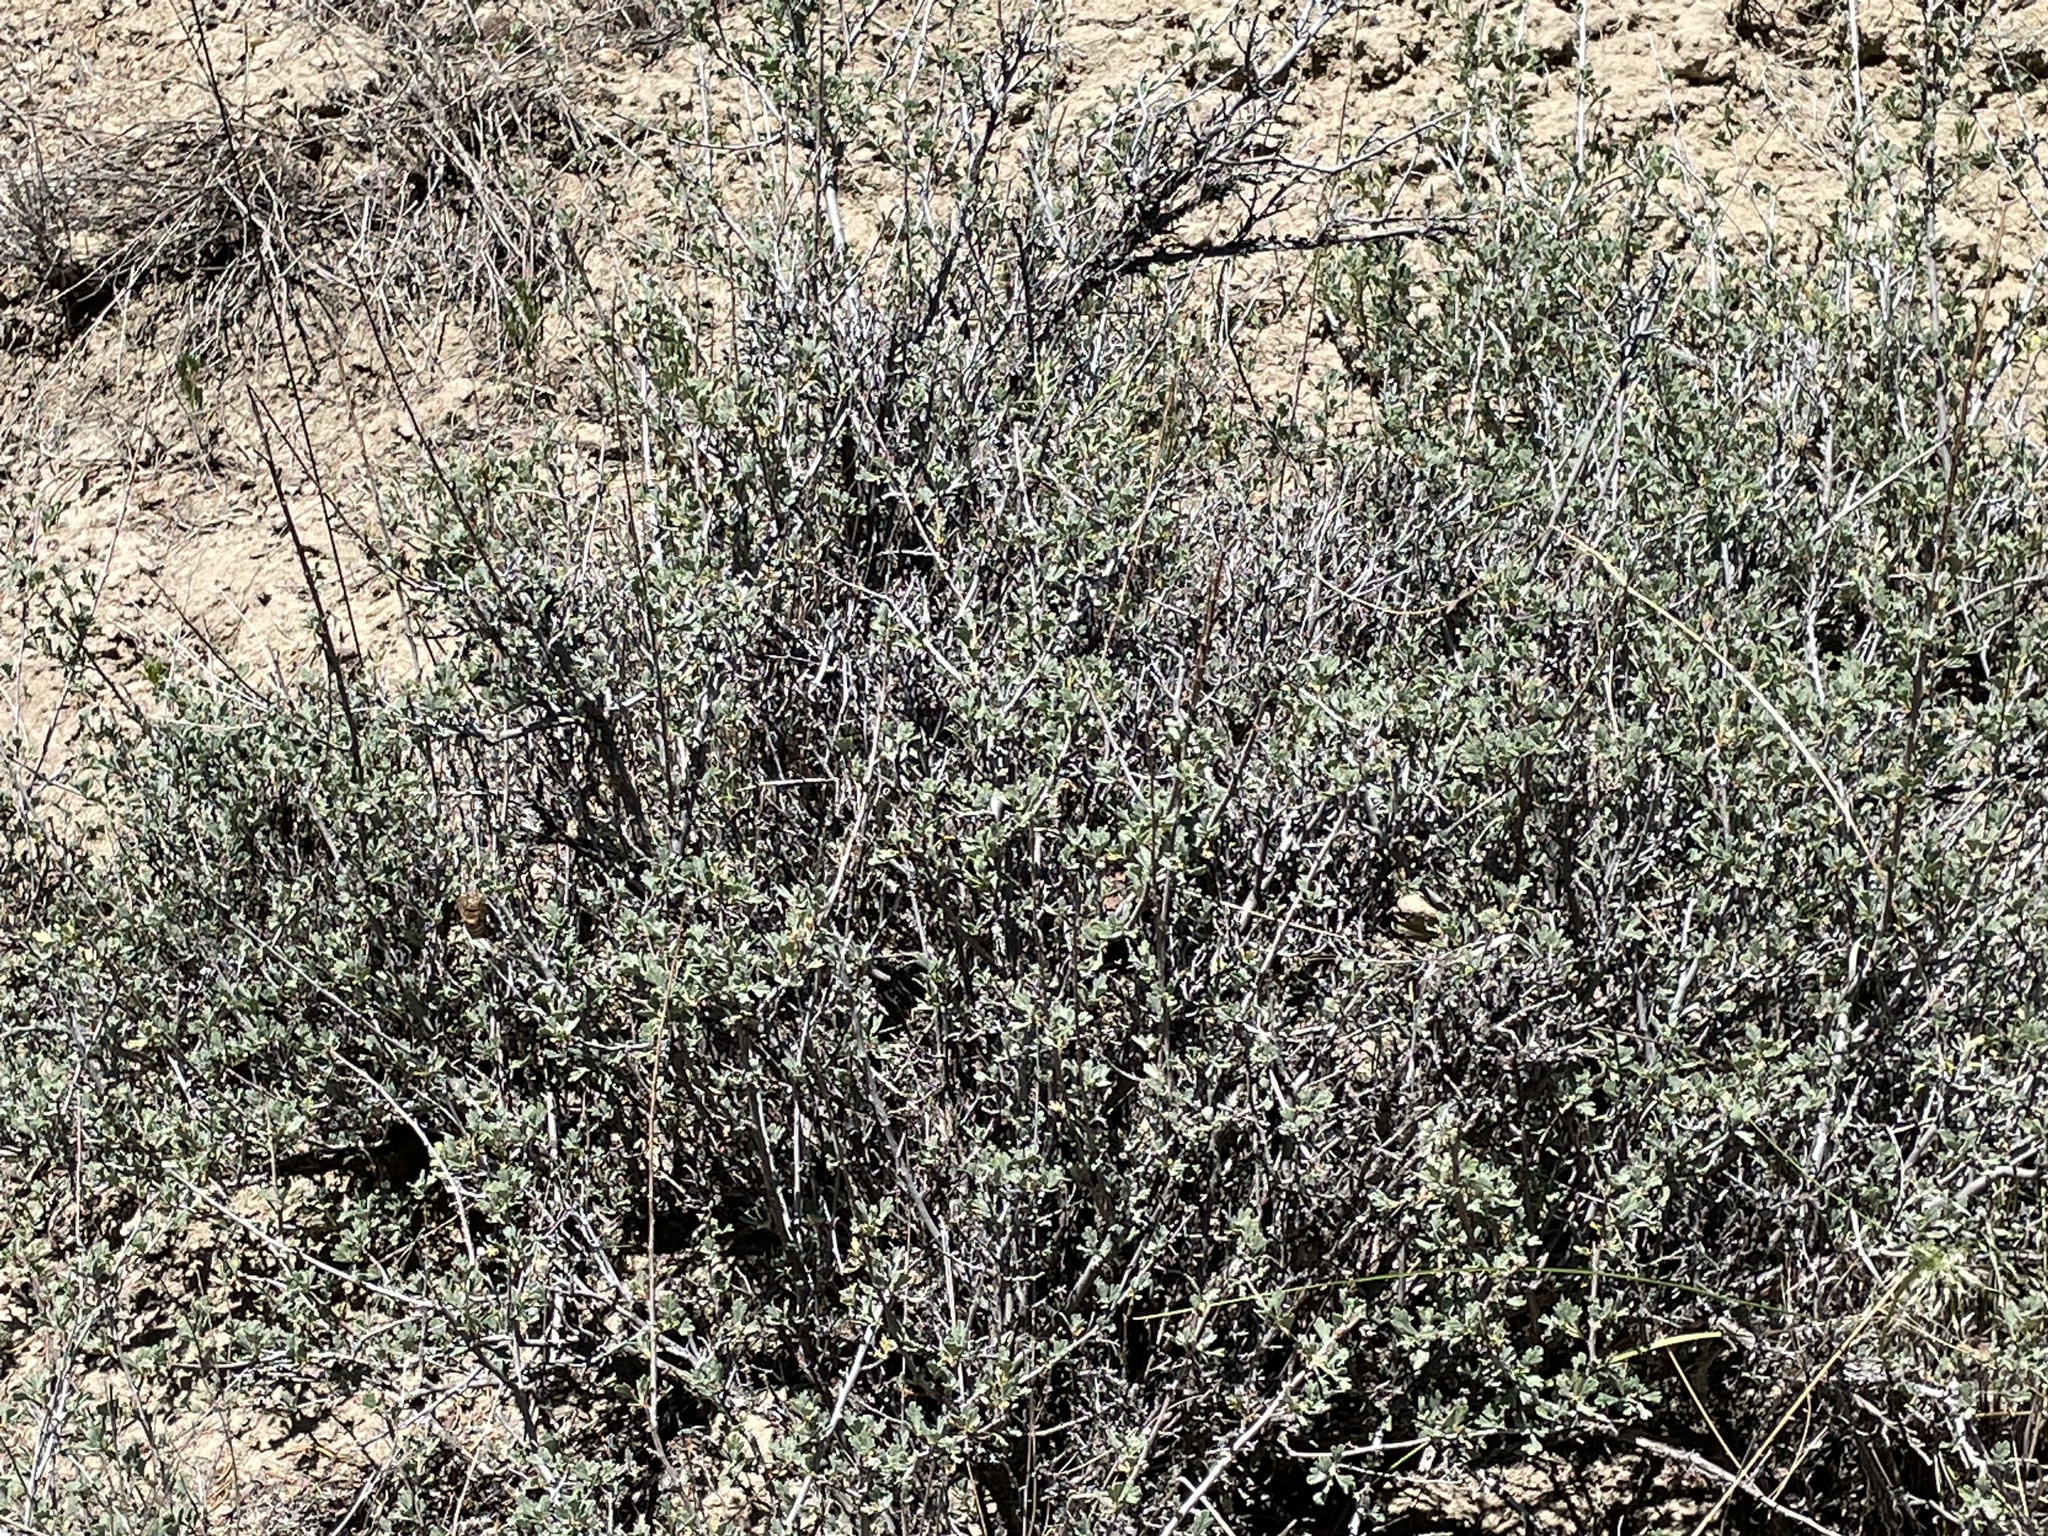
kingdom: Plantae
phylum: Tracheophyta
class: Magnoliopsida
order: Rosales
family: Rosaceae
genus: Purshia
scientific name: Purshia tridentata
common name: Antelope bitterbrush
